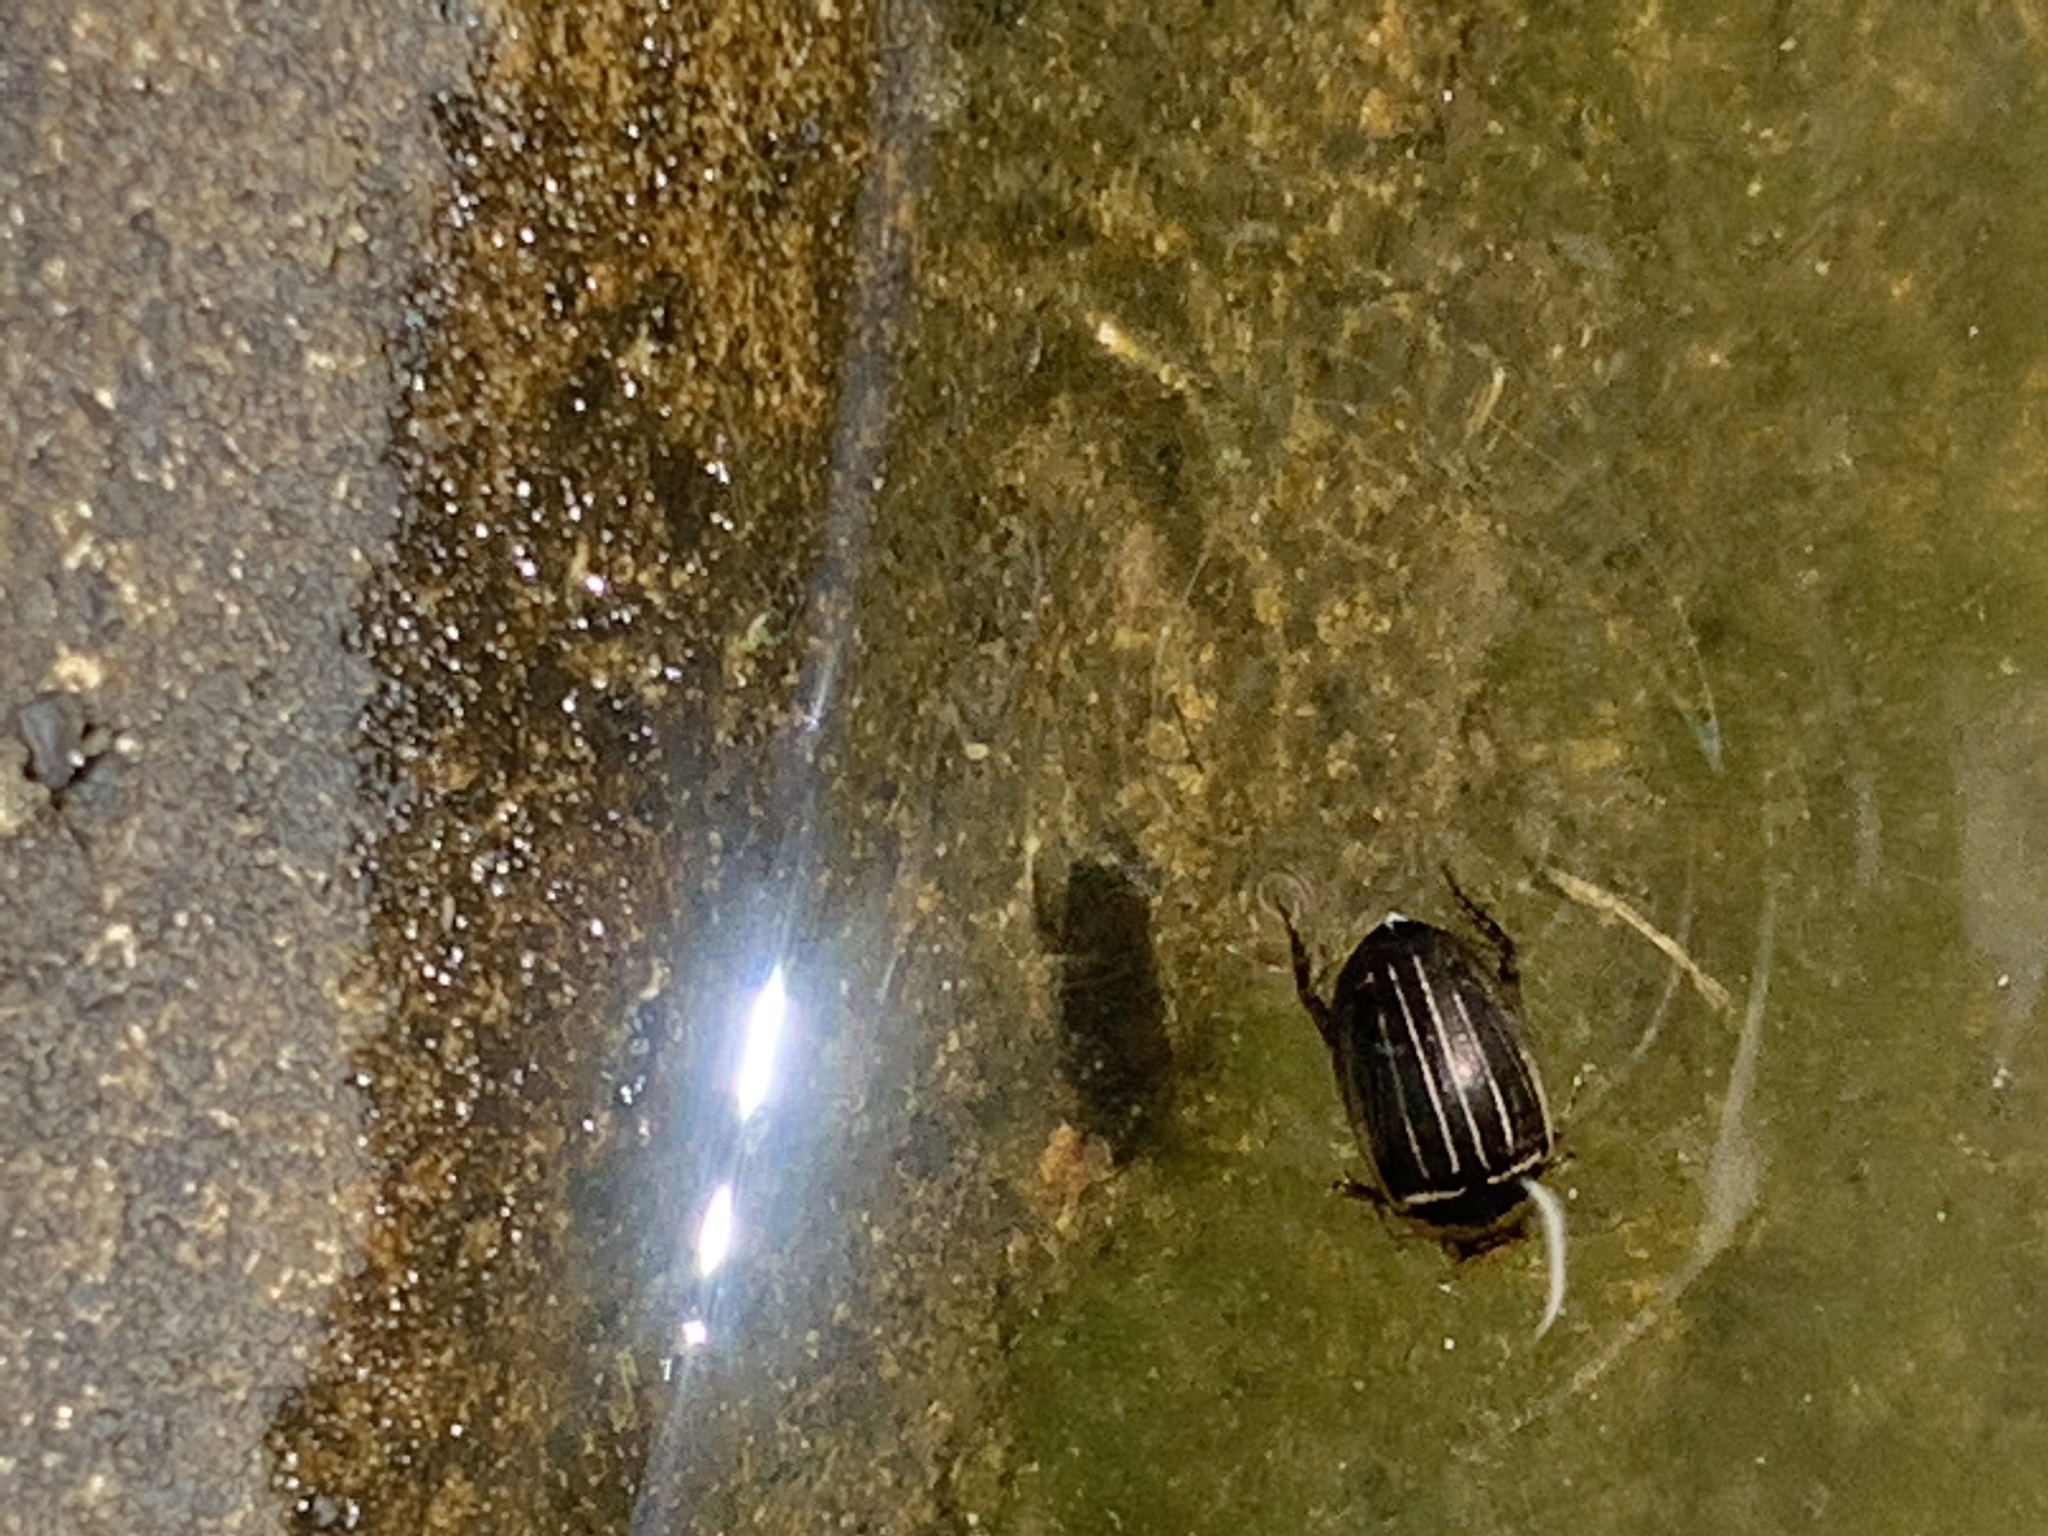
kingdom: Animalia
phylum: Arthropoda
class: Insecta
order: Coleoptera
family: Dytiscidae
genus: Hydaticus
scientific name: Hydaticus aruspex
